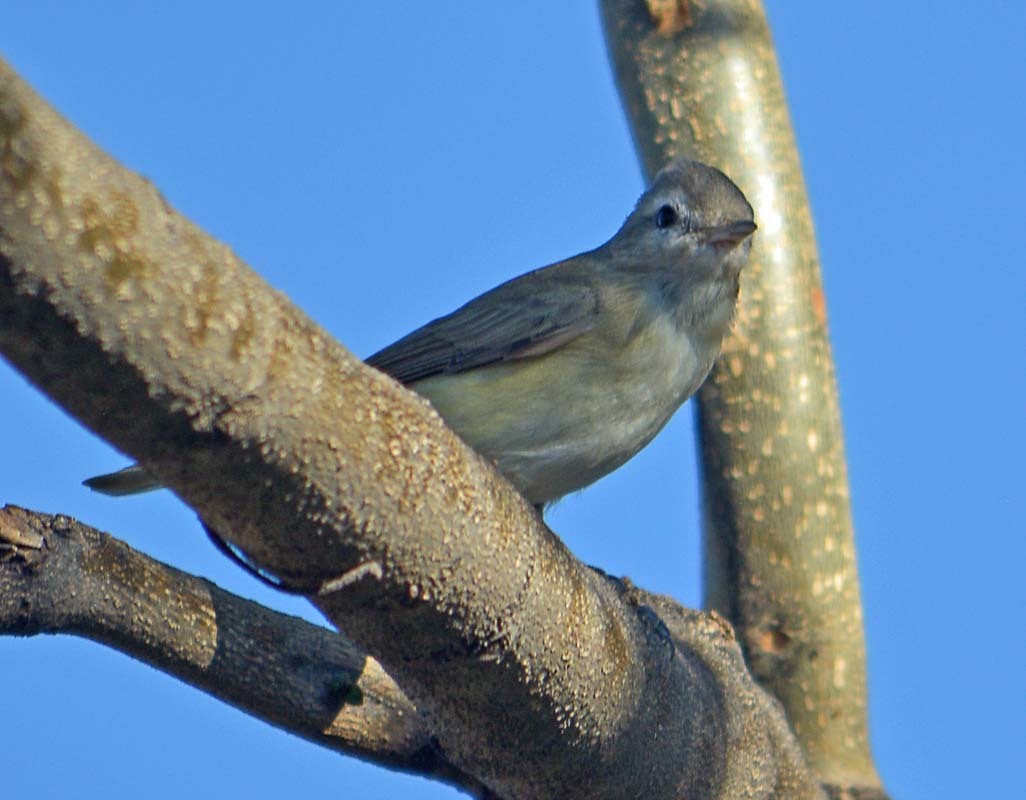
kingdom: Animalia
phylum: Chordata
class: Aves
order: Passeriformes
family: Vireonidae
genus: Vireo
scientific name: Vireo gilvus
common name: Warbling vireo
